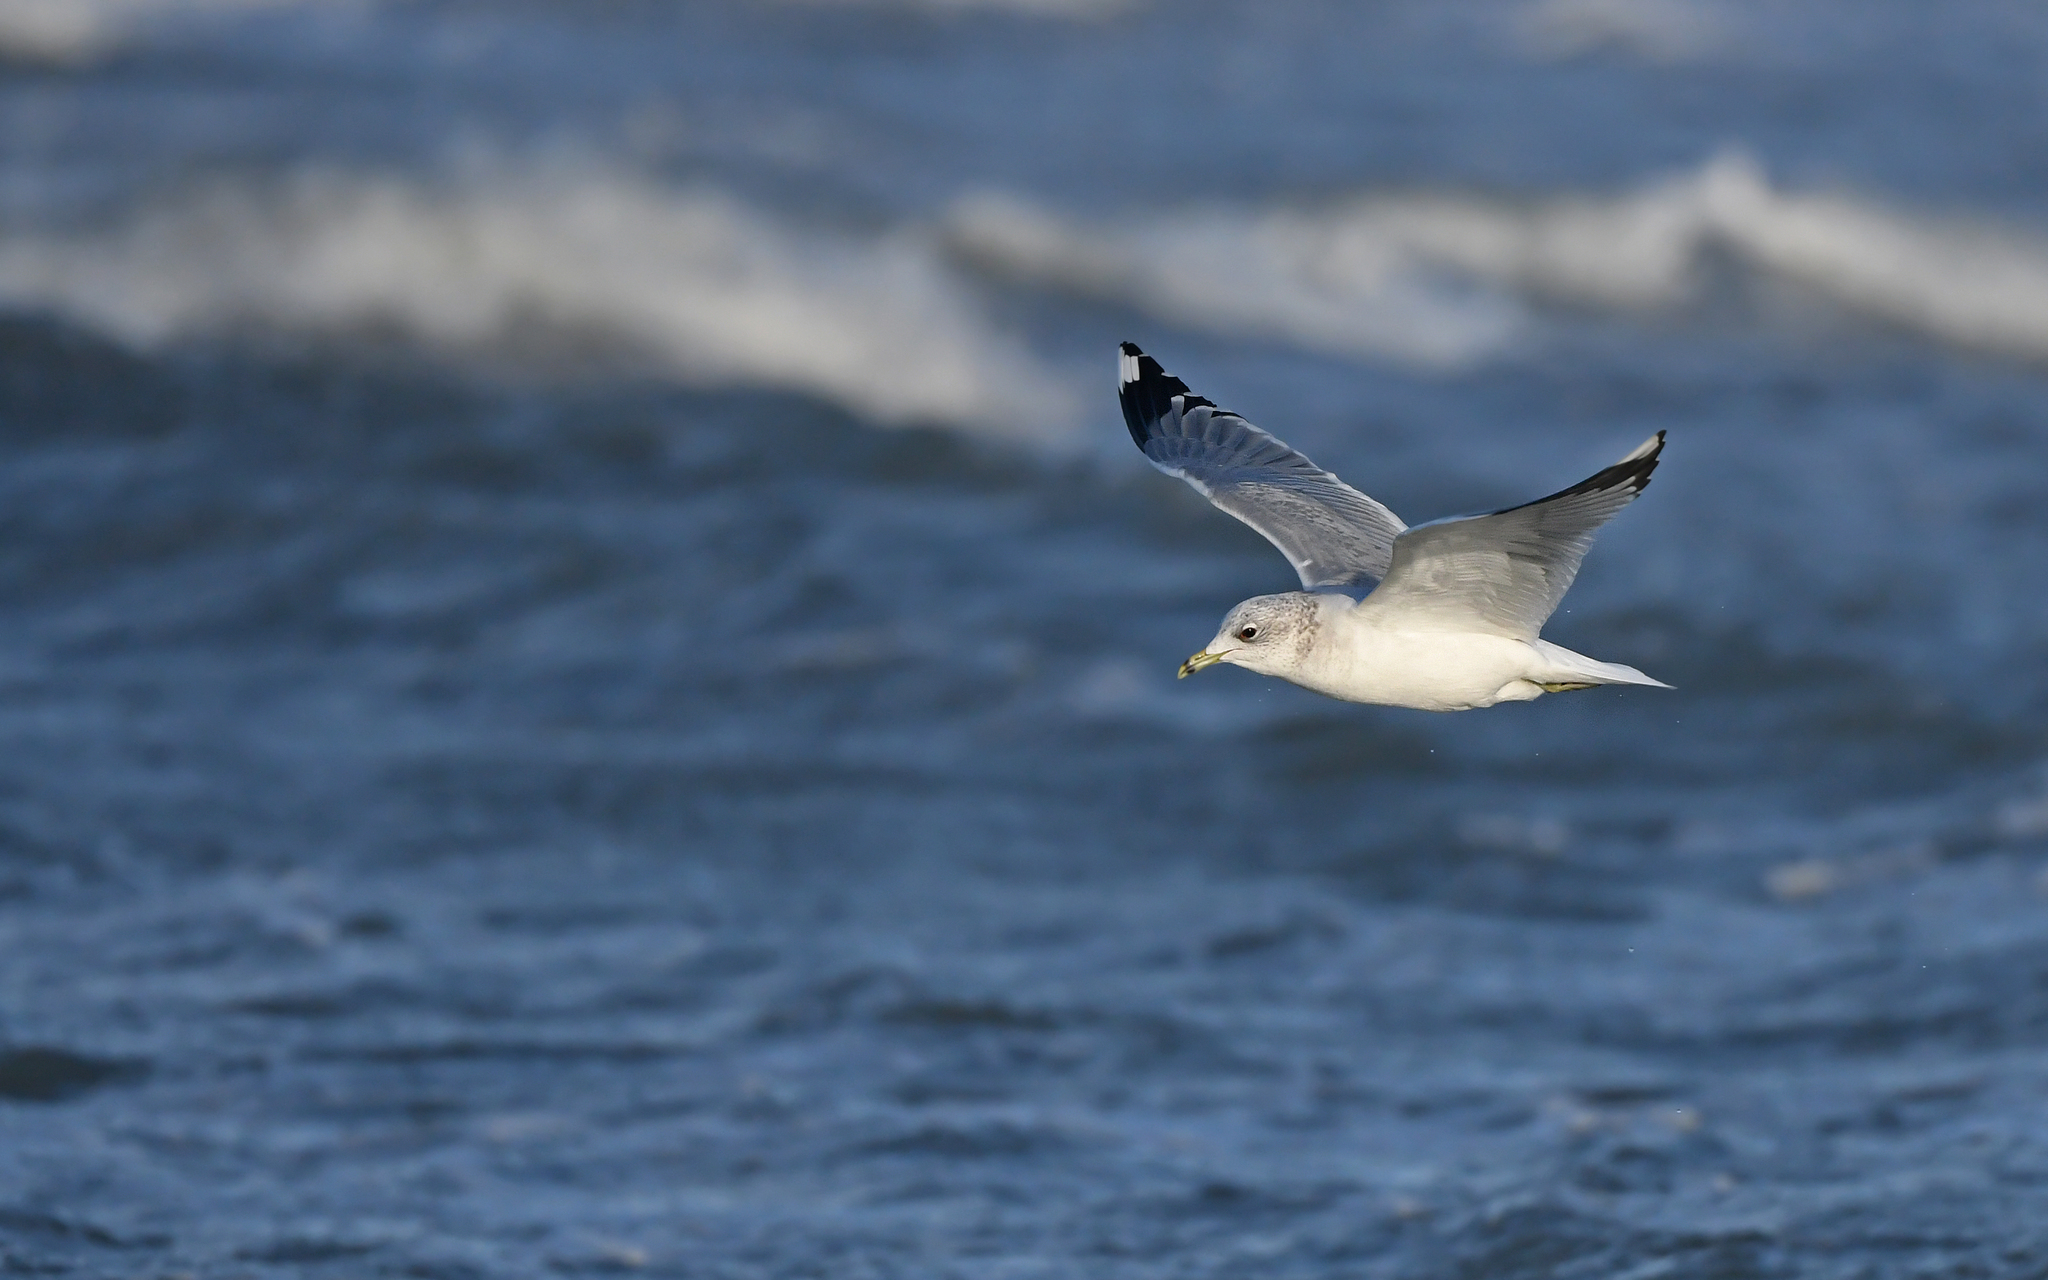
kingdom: Animalia
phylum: Chordata
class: Aves
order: Charadriiformes
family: Laridae
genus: Larus
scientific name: Larus canus
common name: Mew gull
